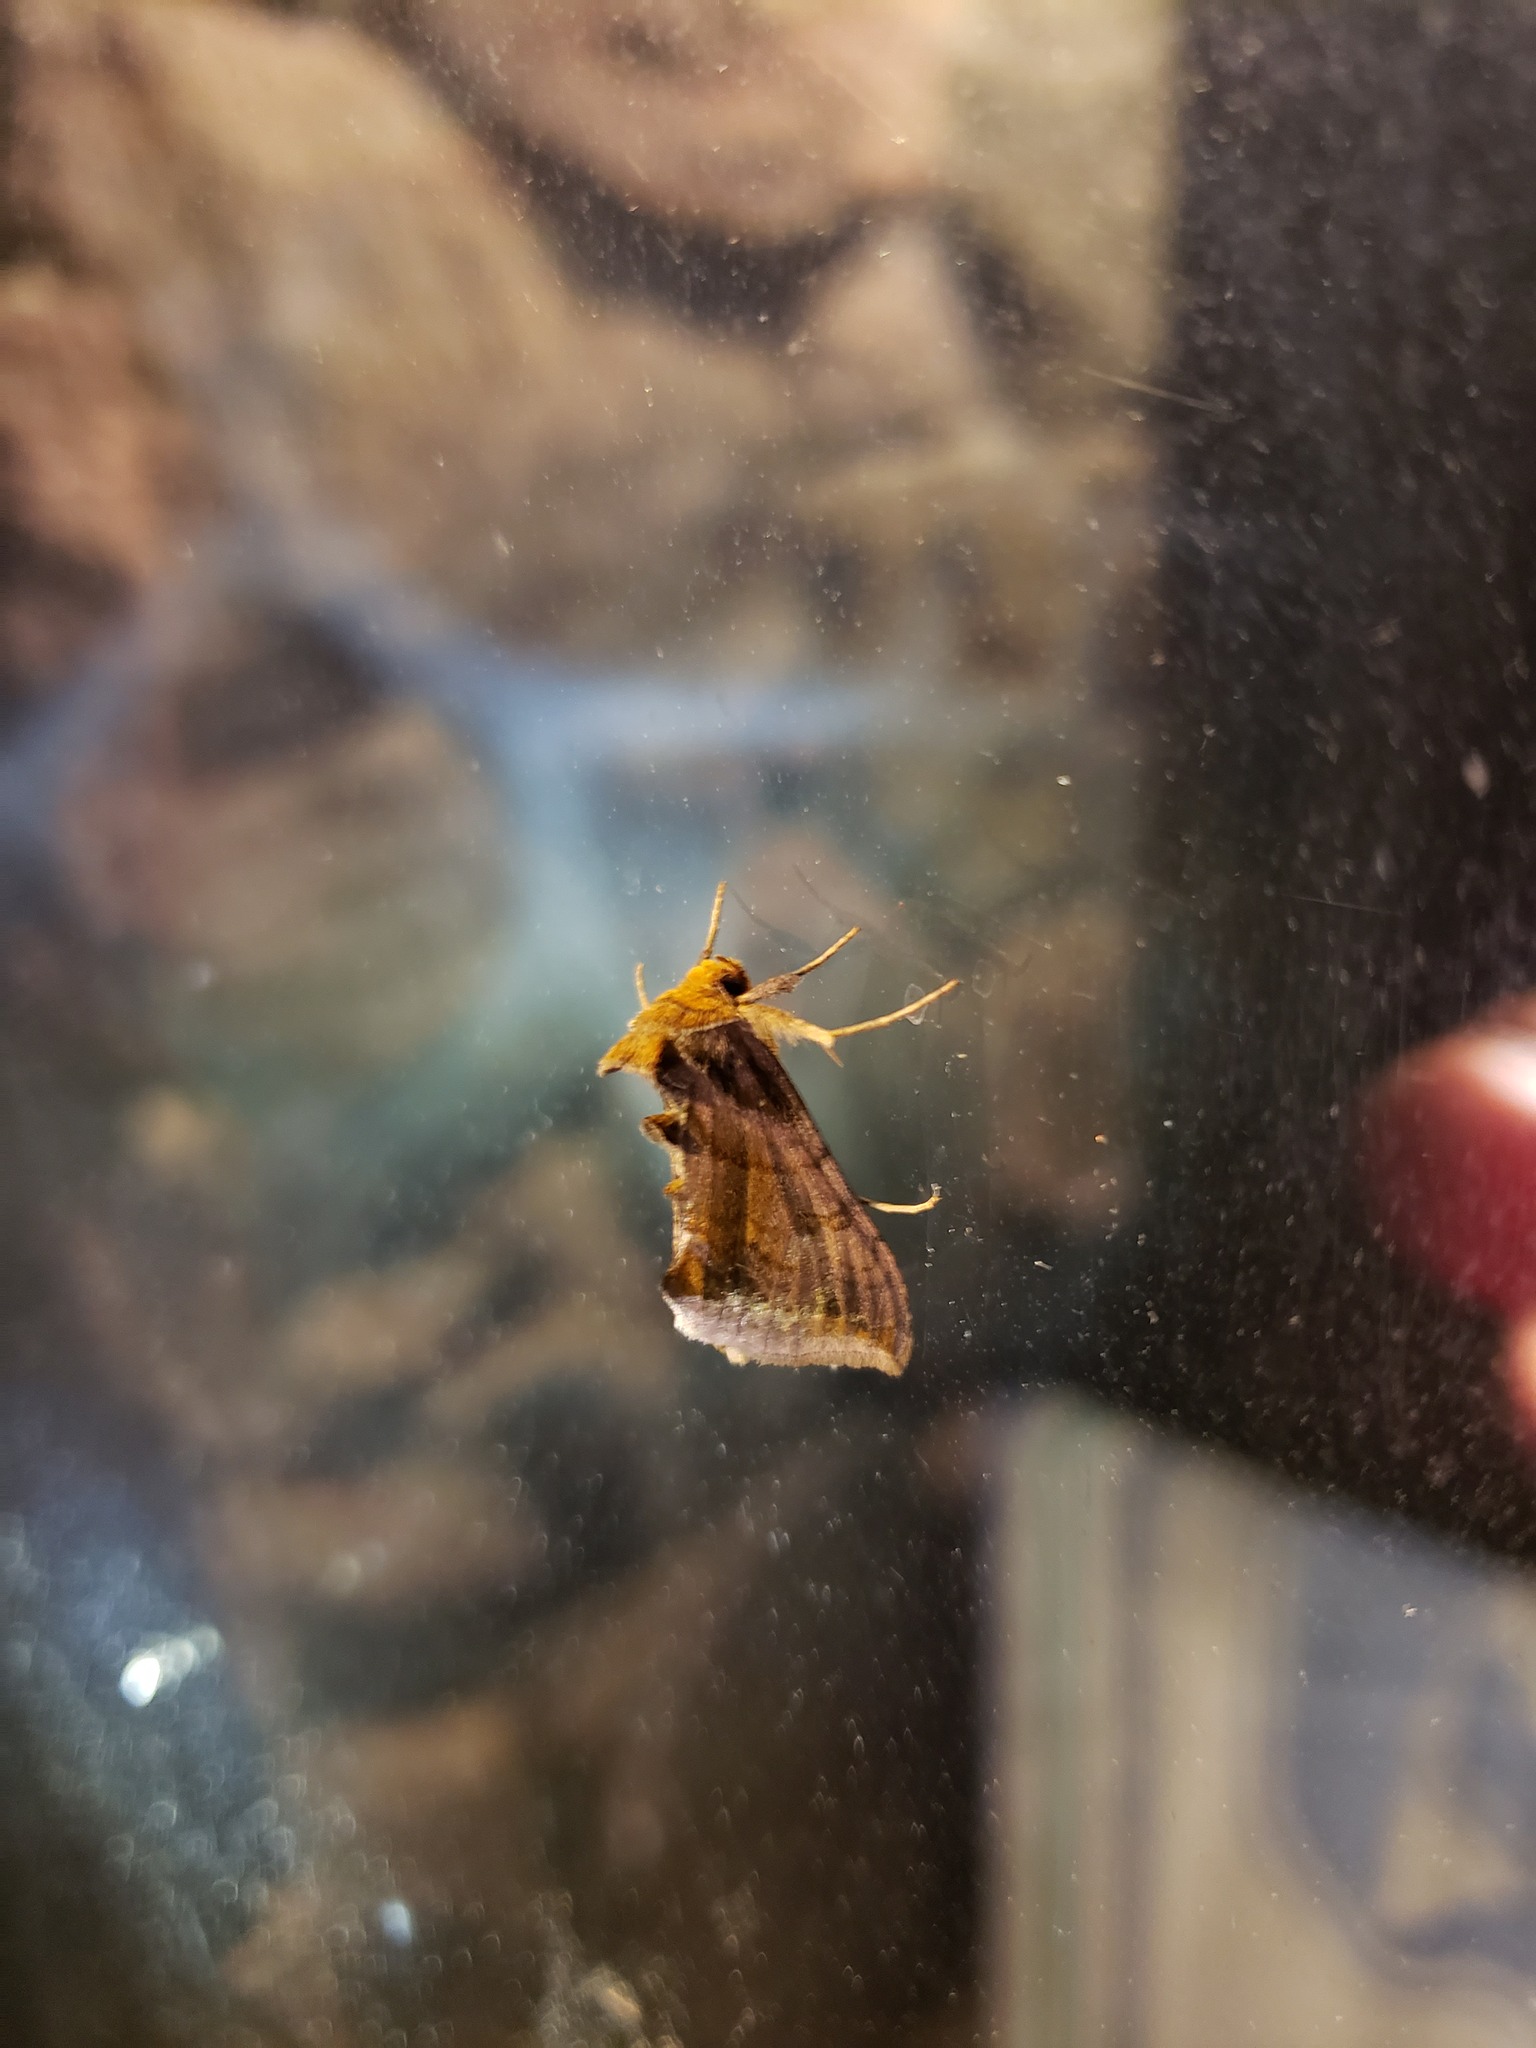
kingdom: Animalia
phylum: Arthropoda
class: Insecta
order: Lepidoptera
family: Noctuidae
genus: Allagrapha
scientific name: Allagrapha aerea
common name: Unspotted looper moth
